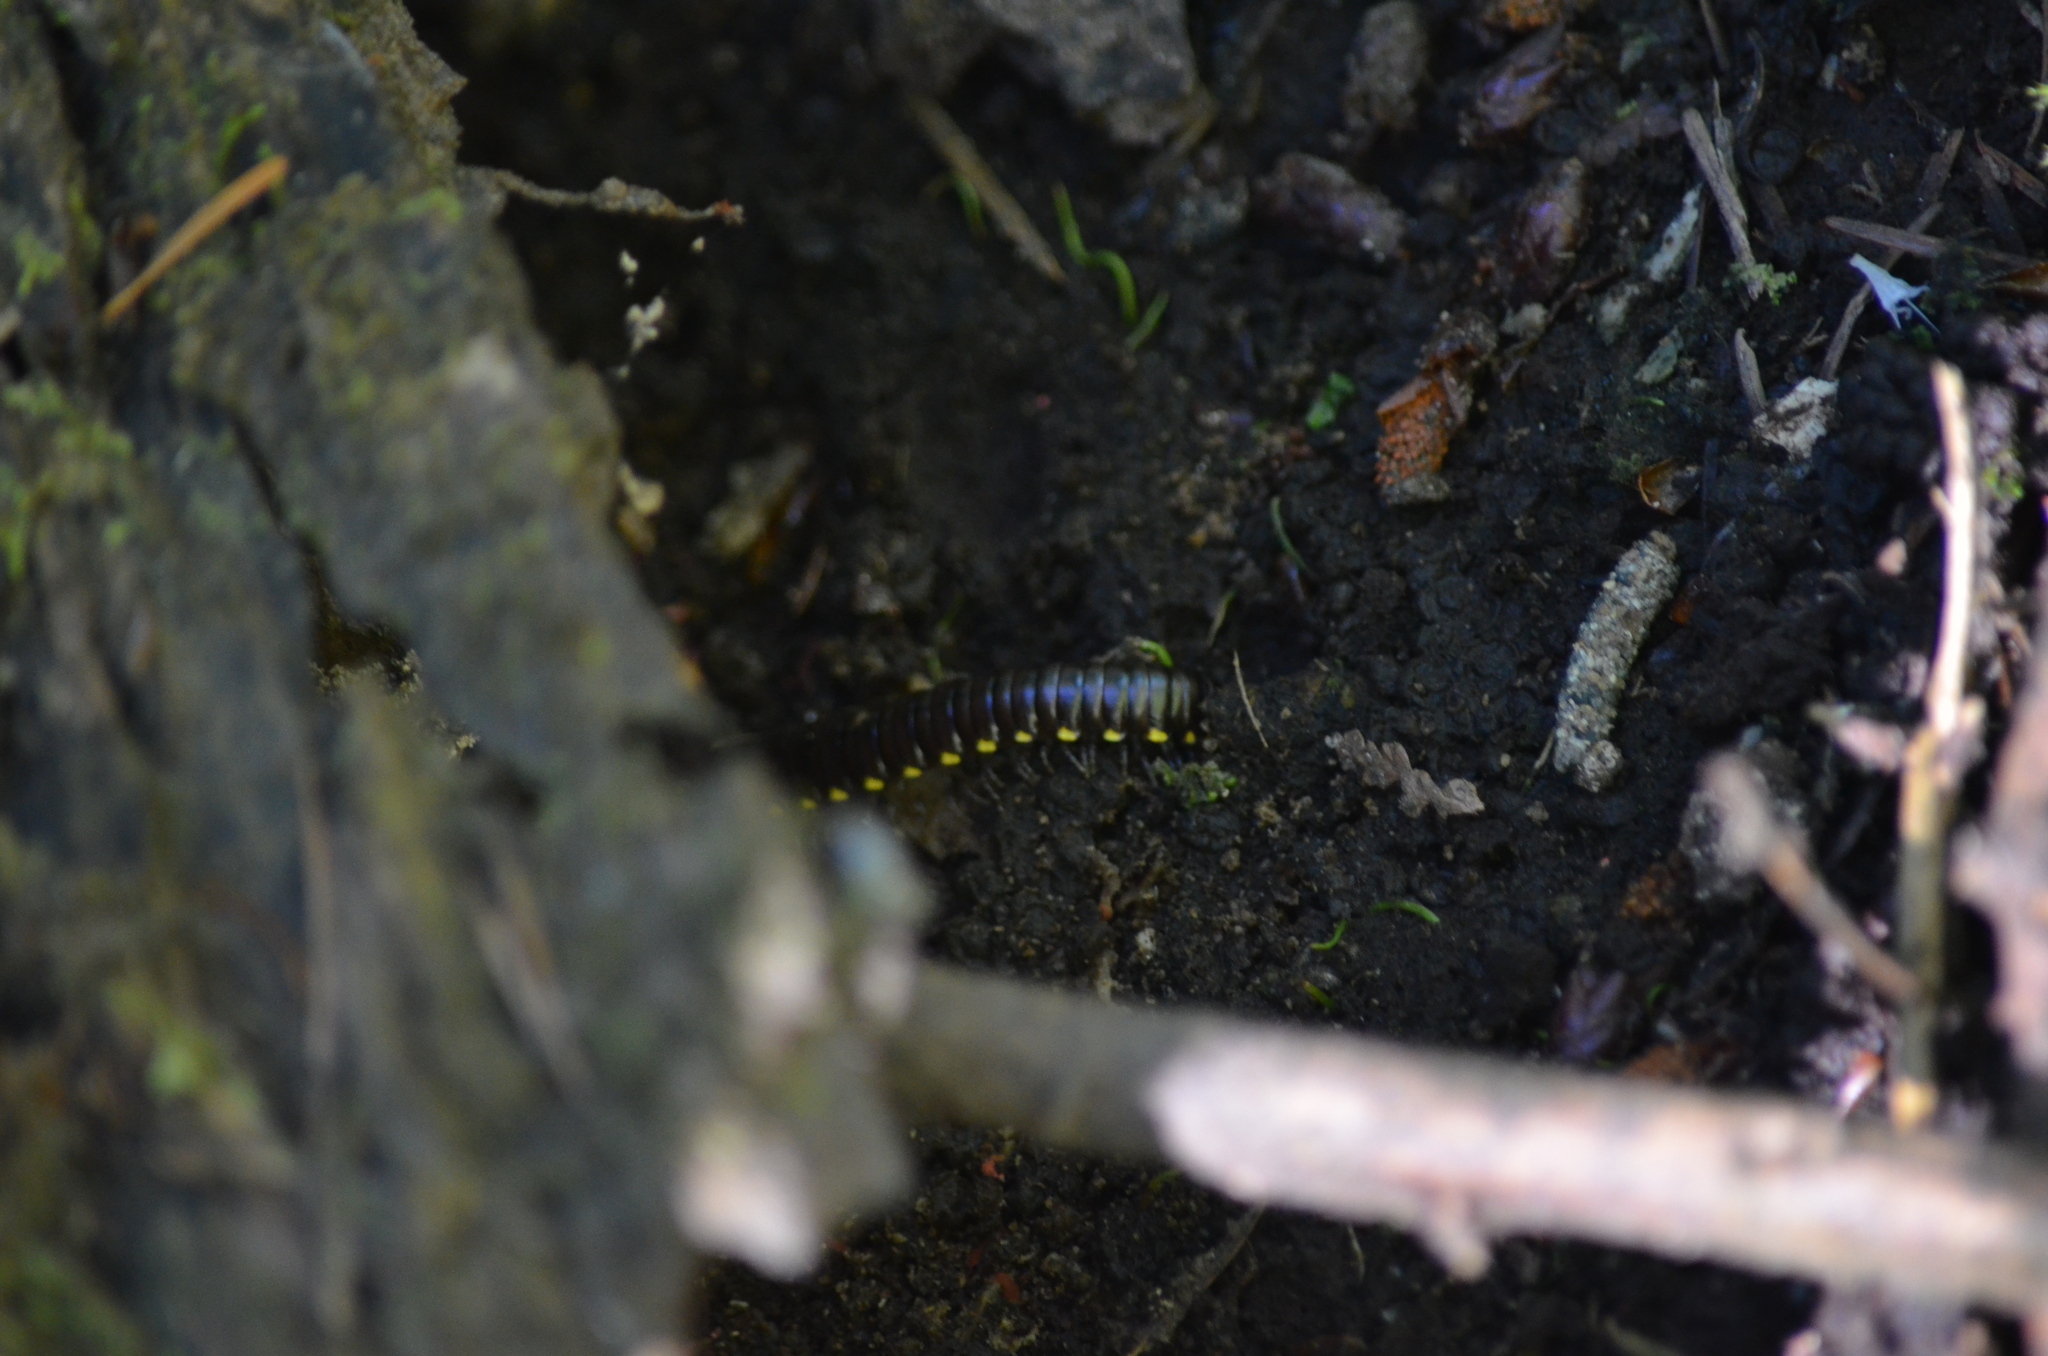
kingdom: Animalia
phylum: Arthropoda
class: Diplopoda
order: Polydesmida
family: Xystodesmidae
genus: Harpaphe
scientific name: Harpaphe haydeniana
